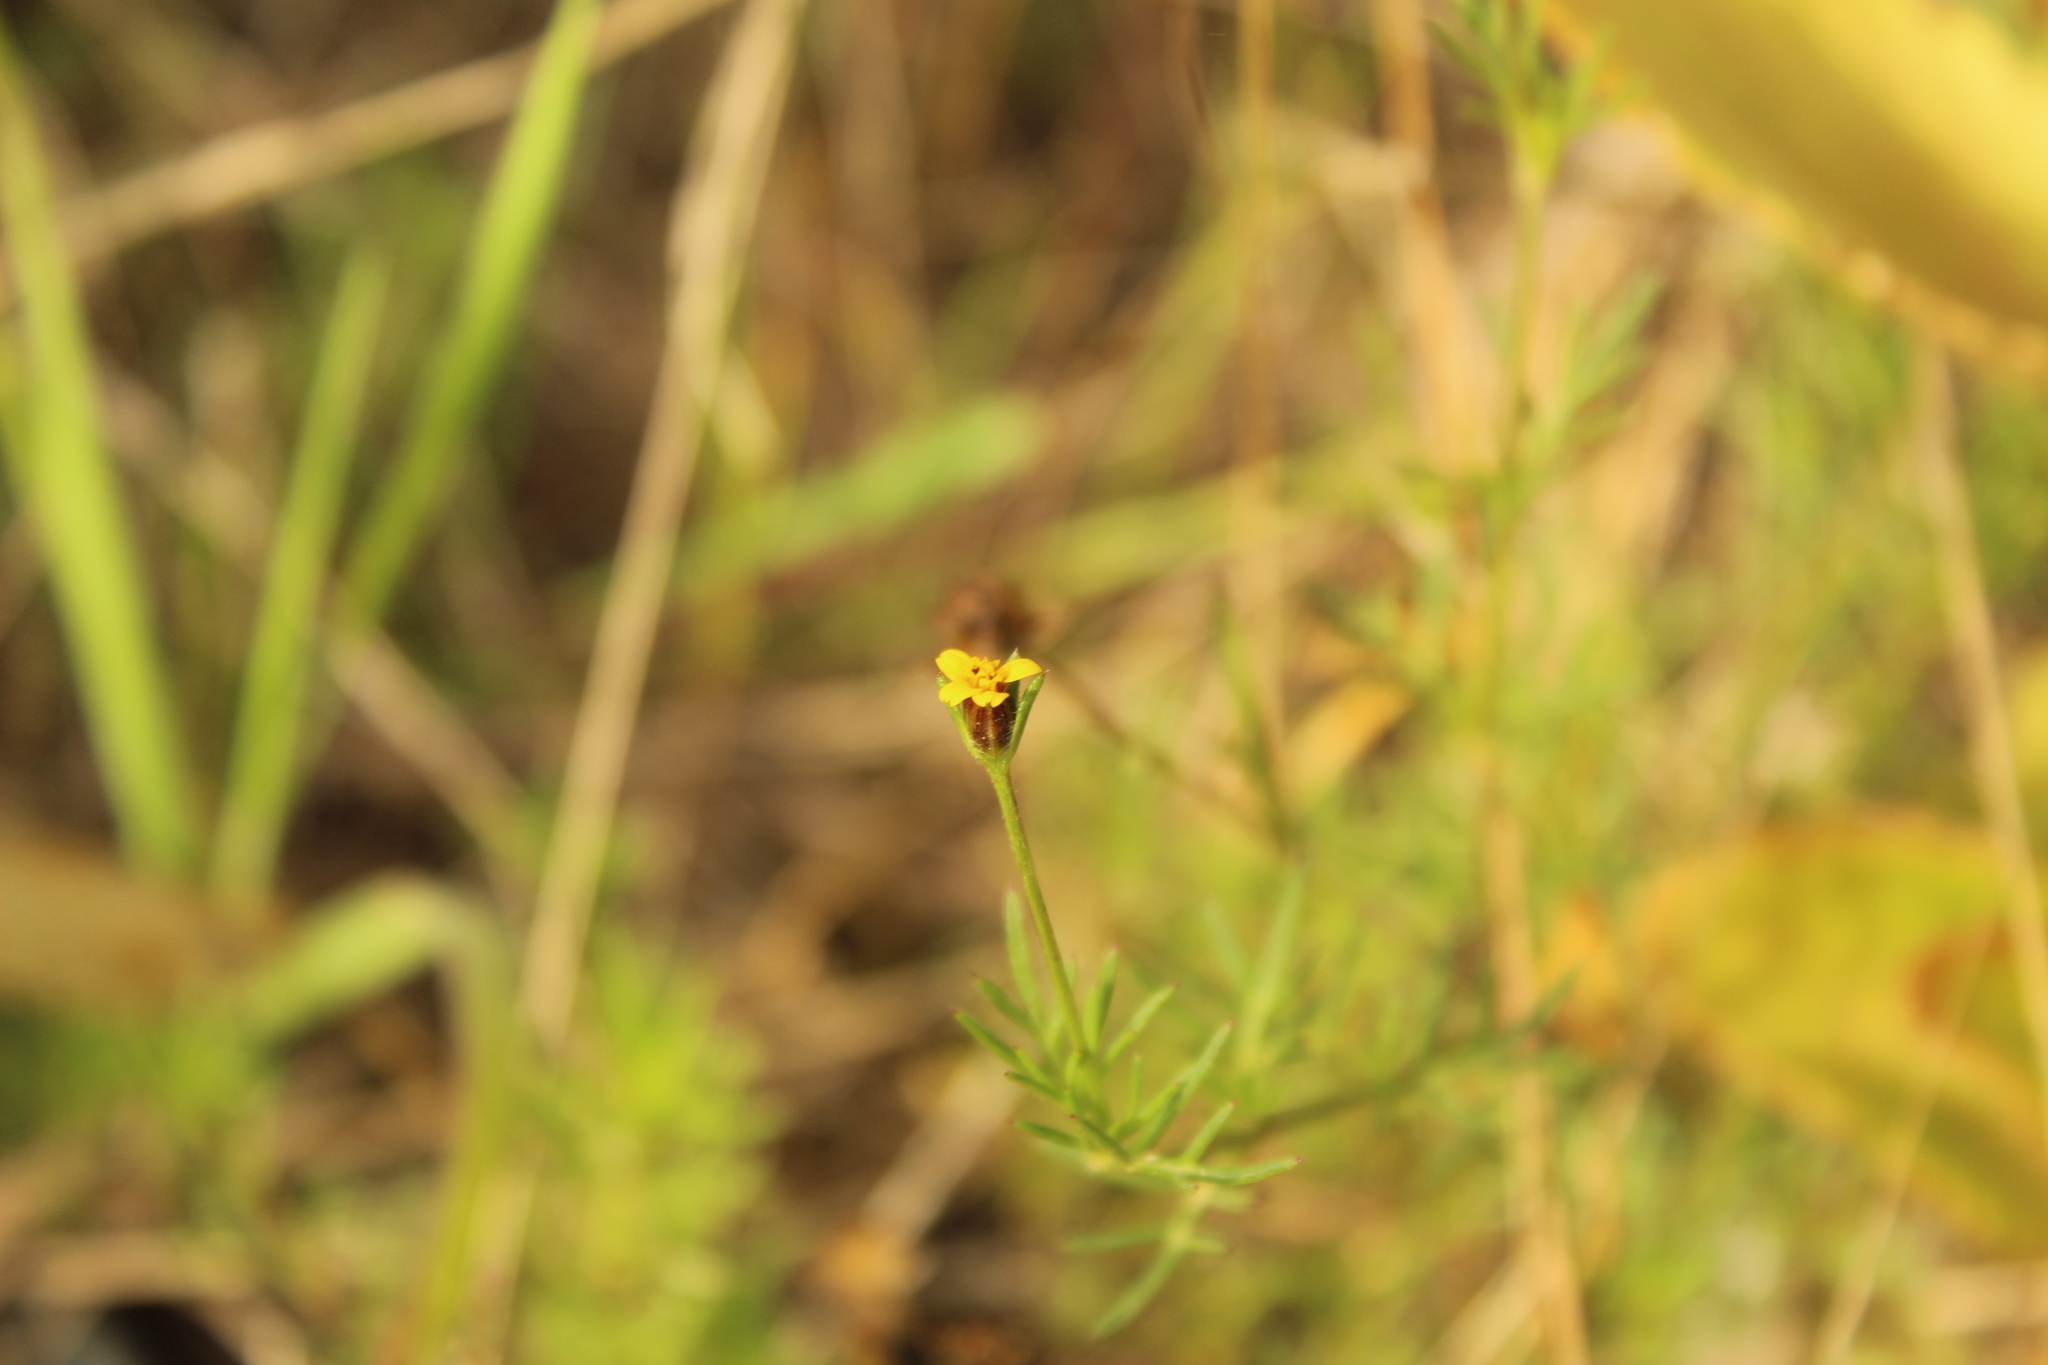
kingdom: Plantae
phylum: Tracheophyta
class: Magnoliopsida
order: Asterales
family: Asteraceae
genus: Heterosperma
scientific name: Heterosperma achaetum
